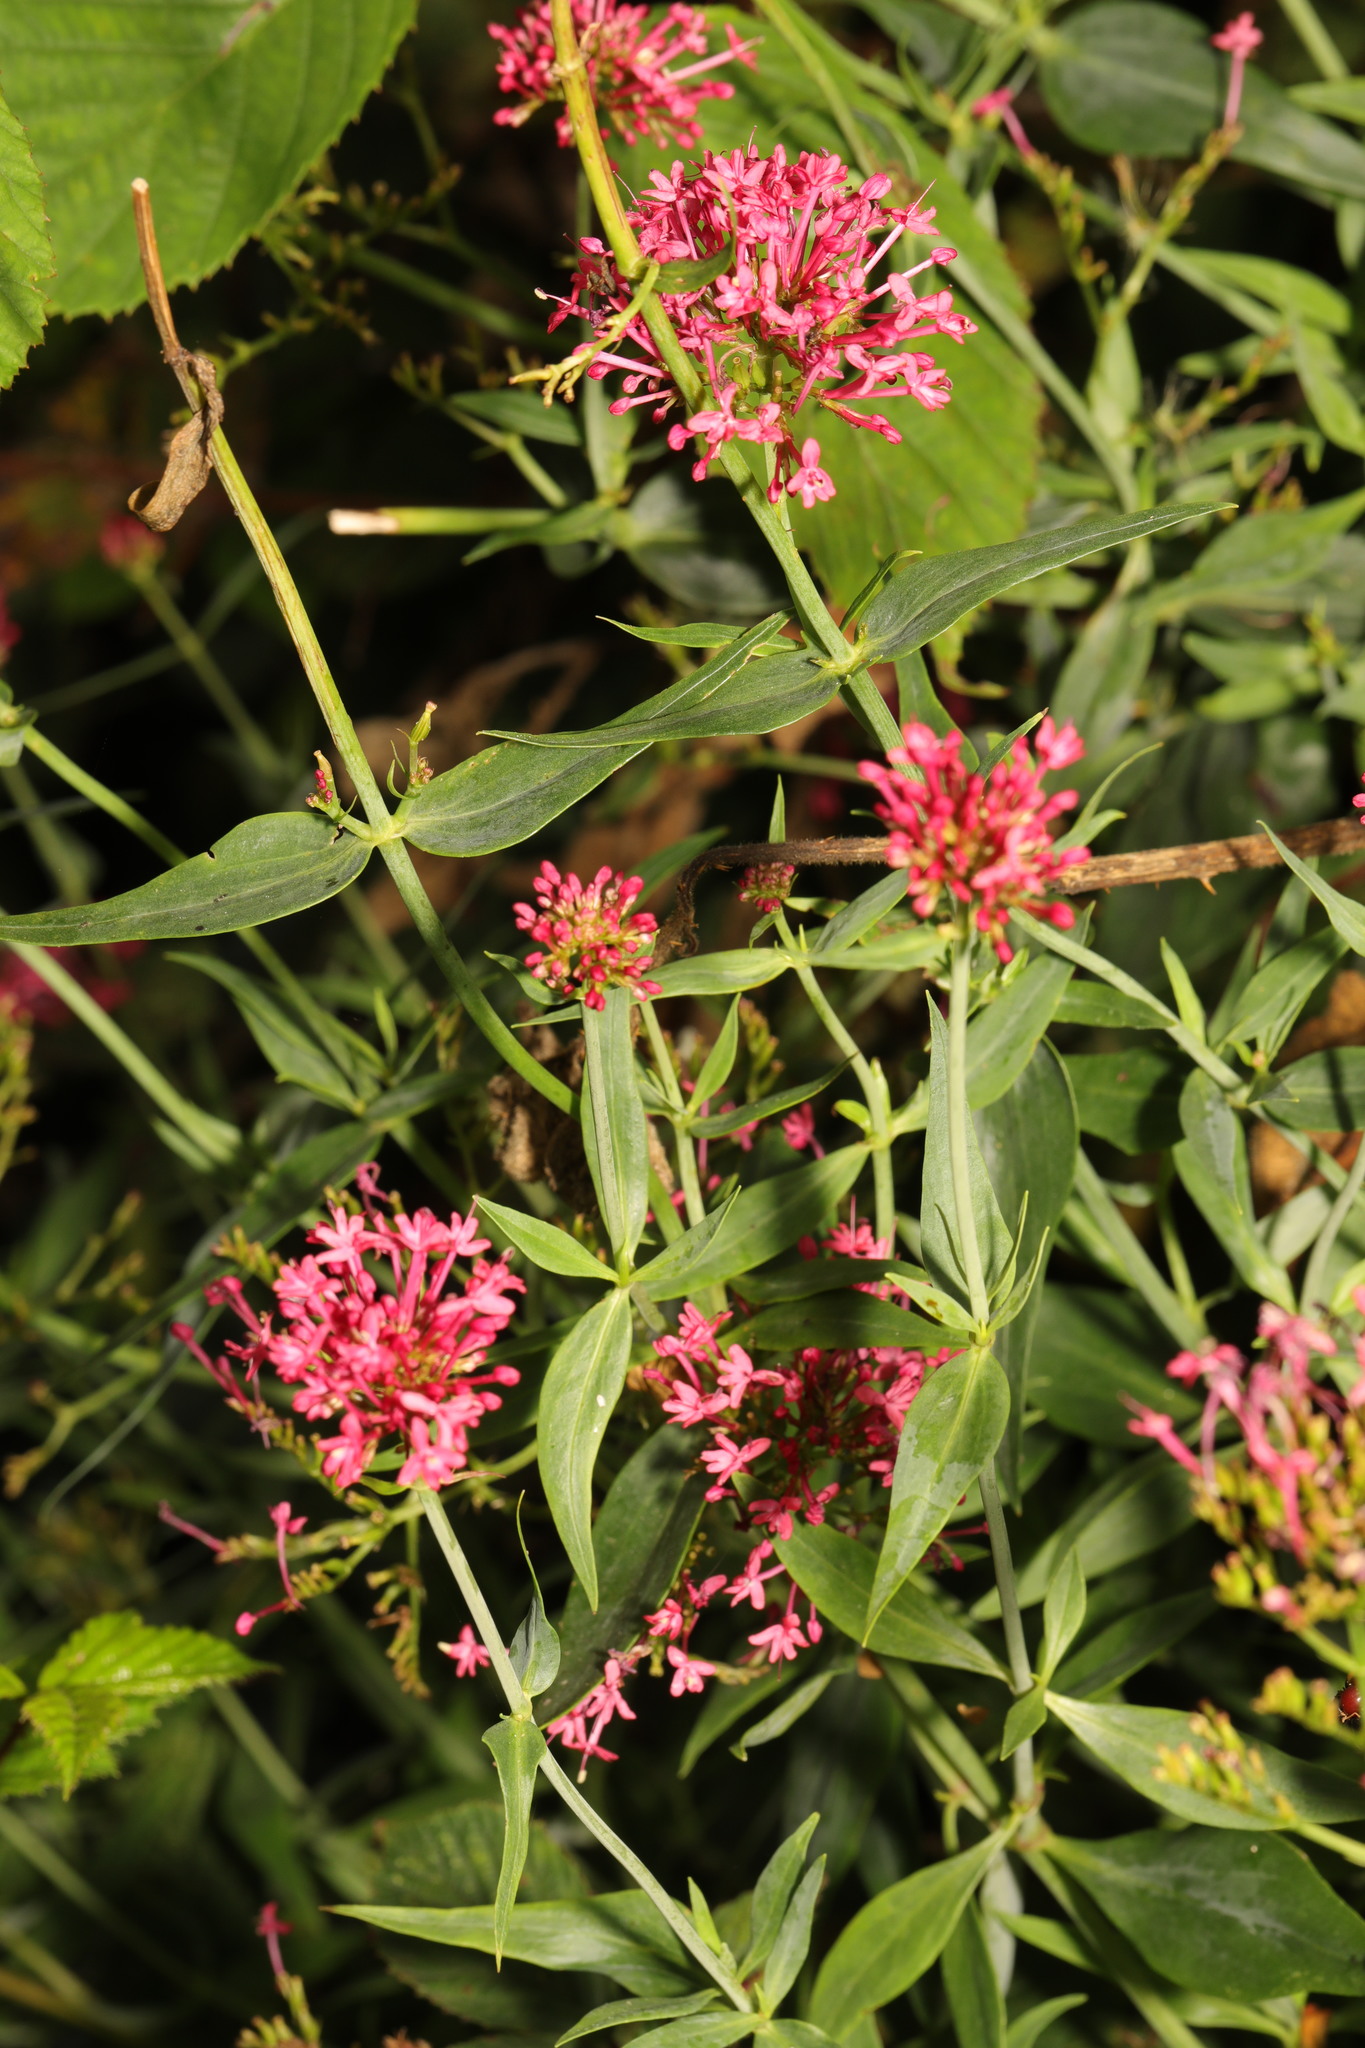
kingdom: Plantae
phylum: Tracheophyta
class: Magnoliopsida
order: Dipsacales
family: Caprifoliaceae
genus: Centranthus
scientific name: Centranthus ruber
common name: Red valerian
